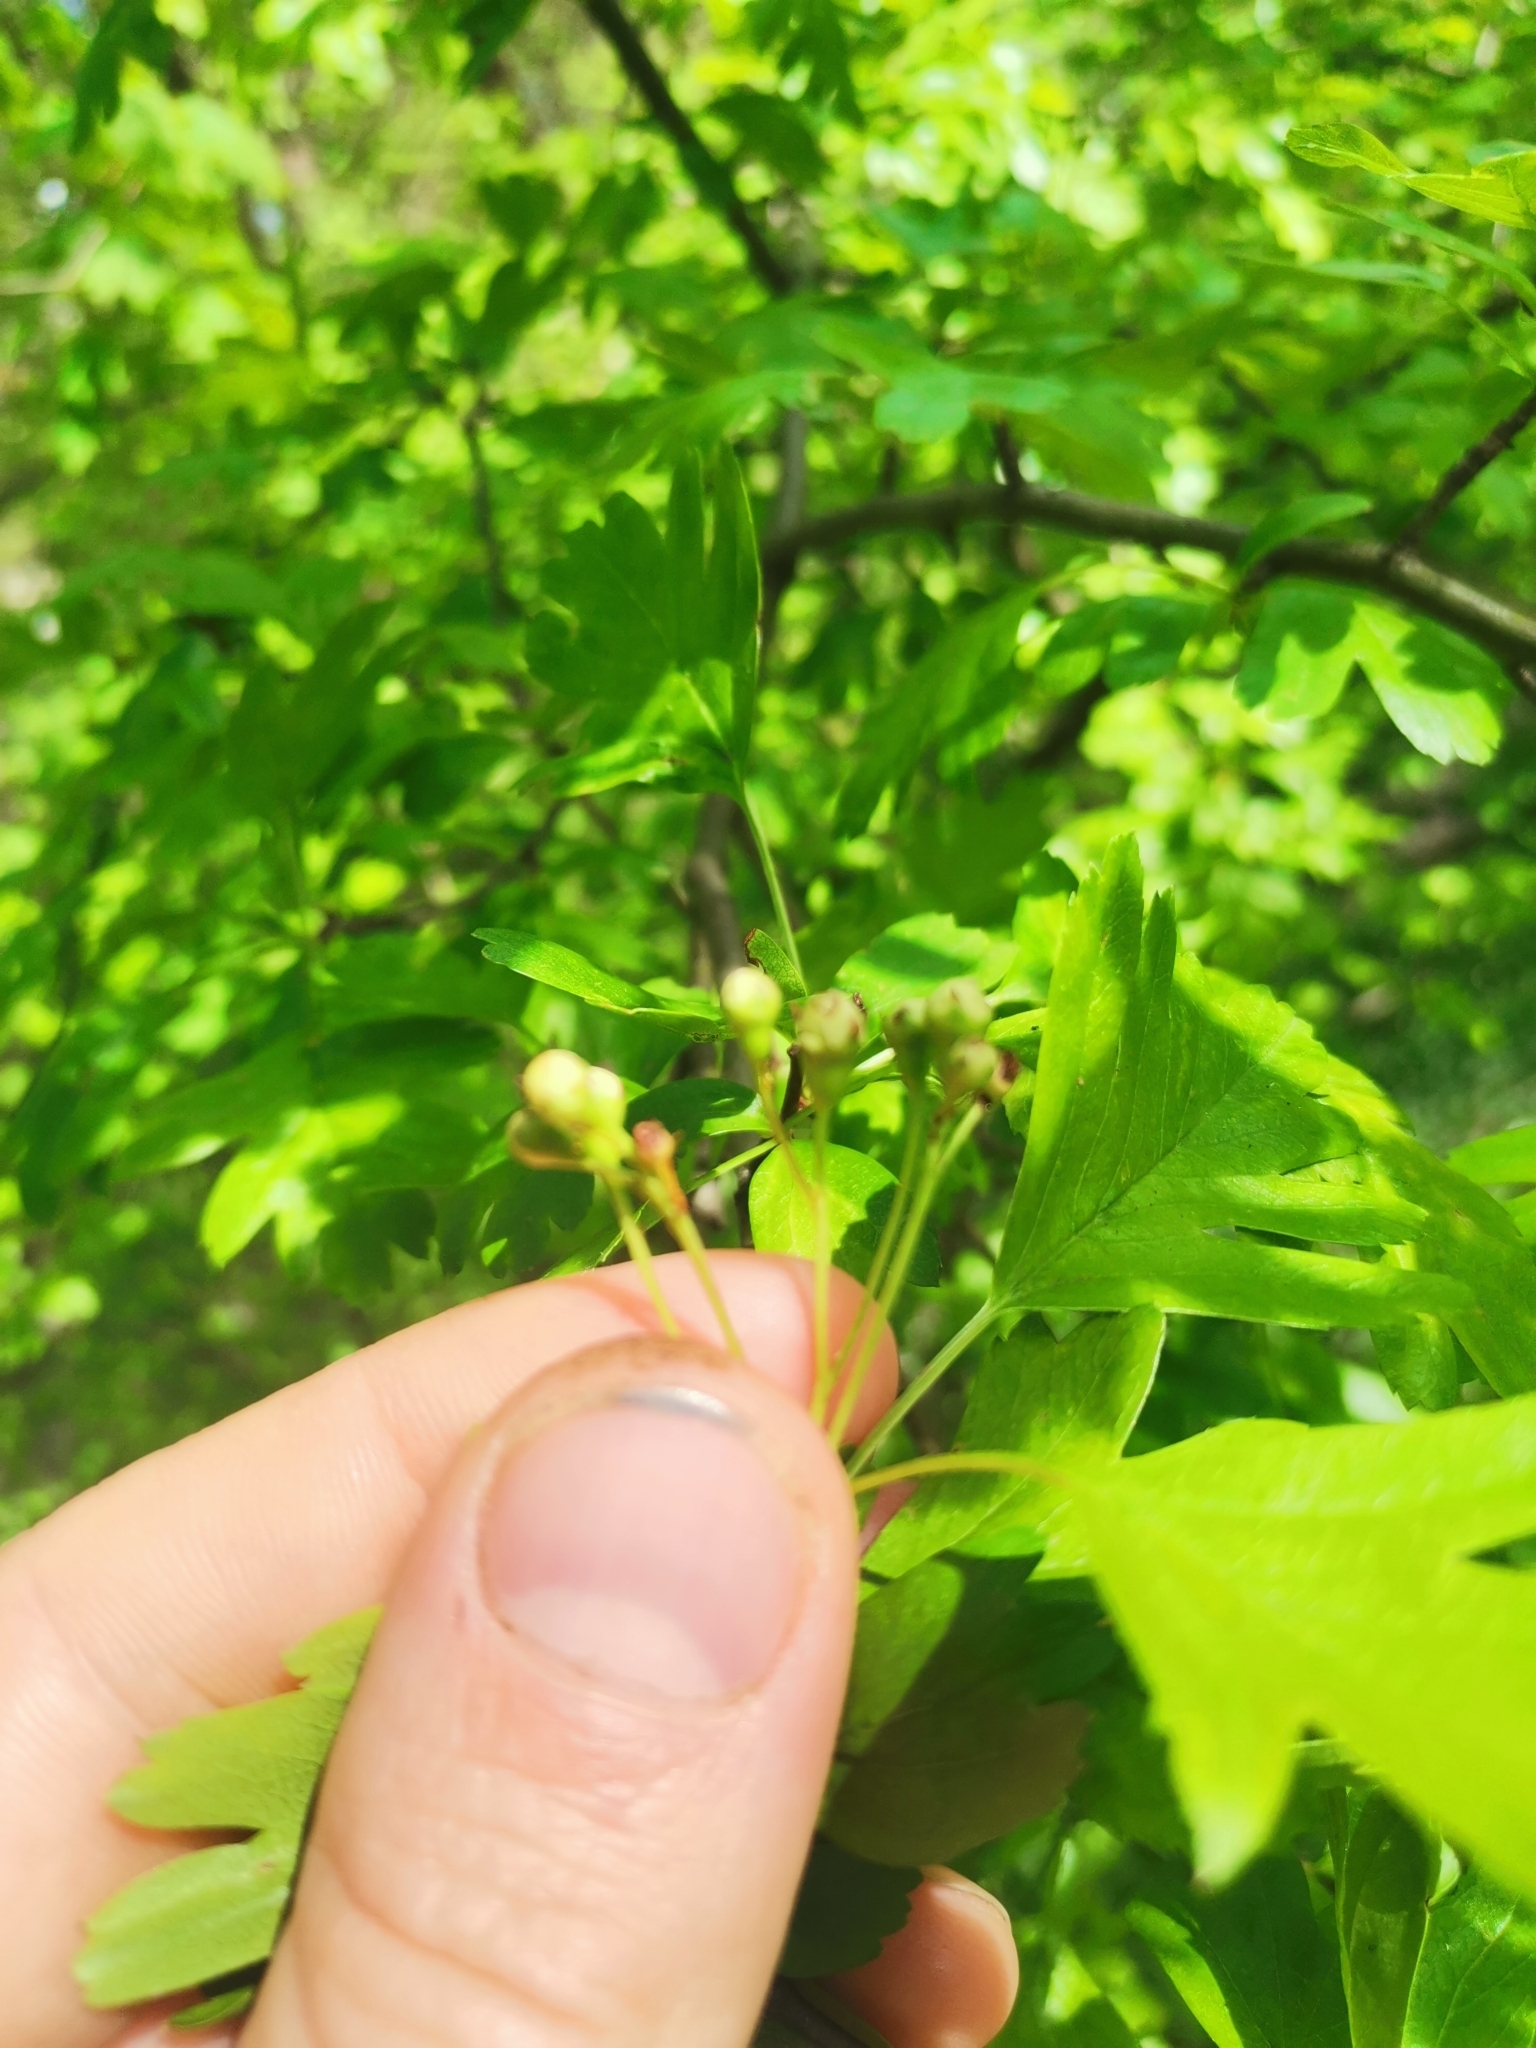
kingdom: Plantae
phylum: Tracheophyta
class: Magnoliopsida
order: Rosales
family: Rosaceae
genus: Crataegus
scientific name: Crataegus monogyna
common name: Hawthorn
